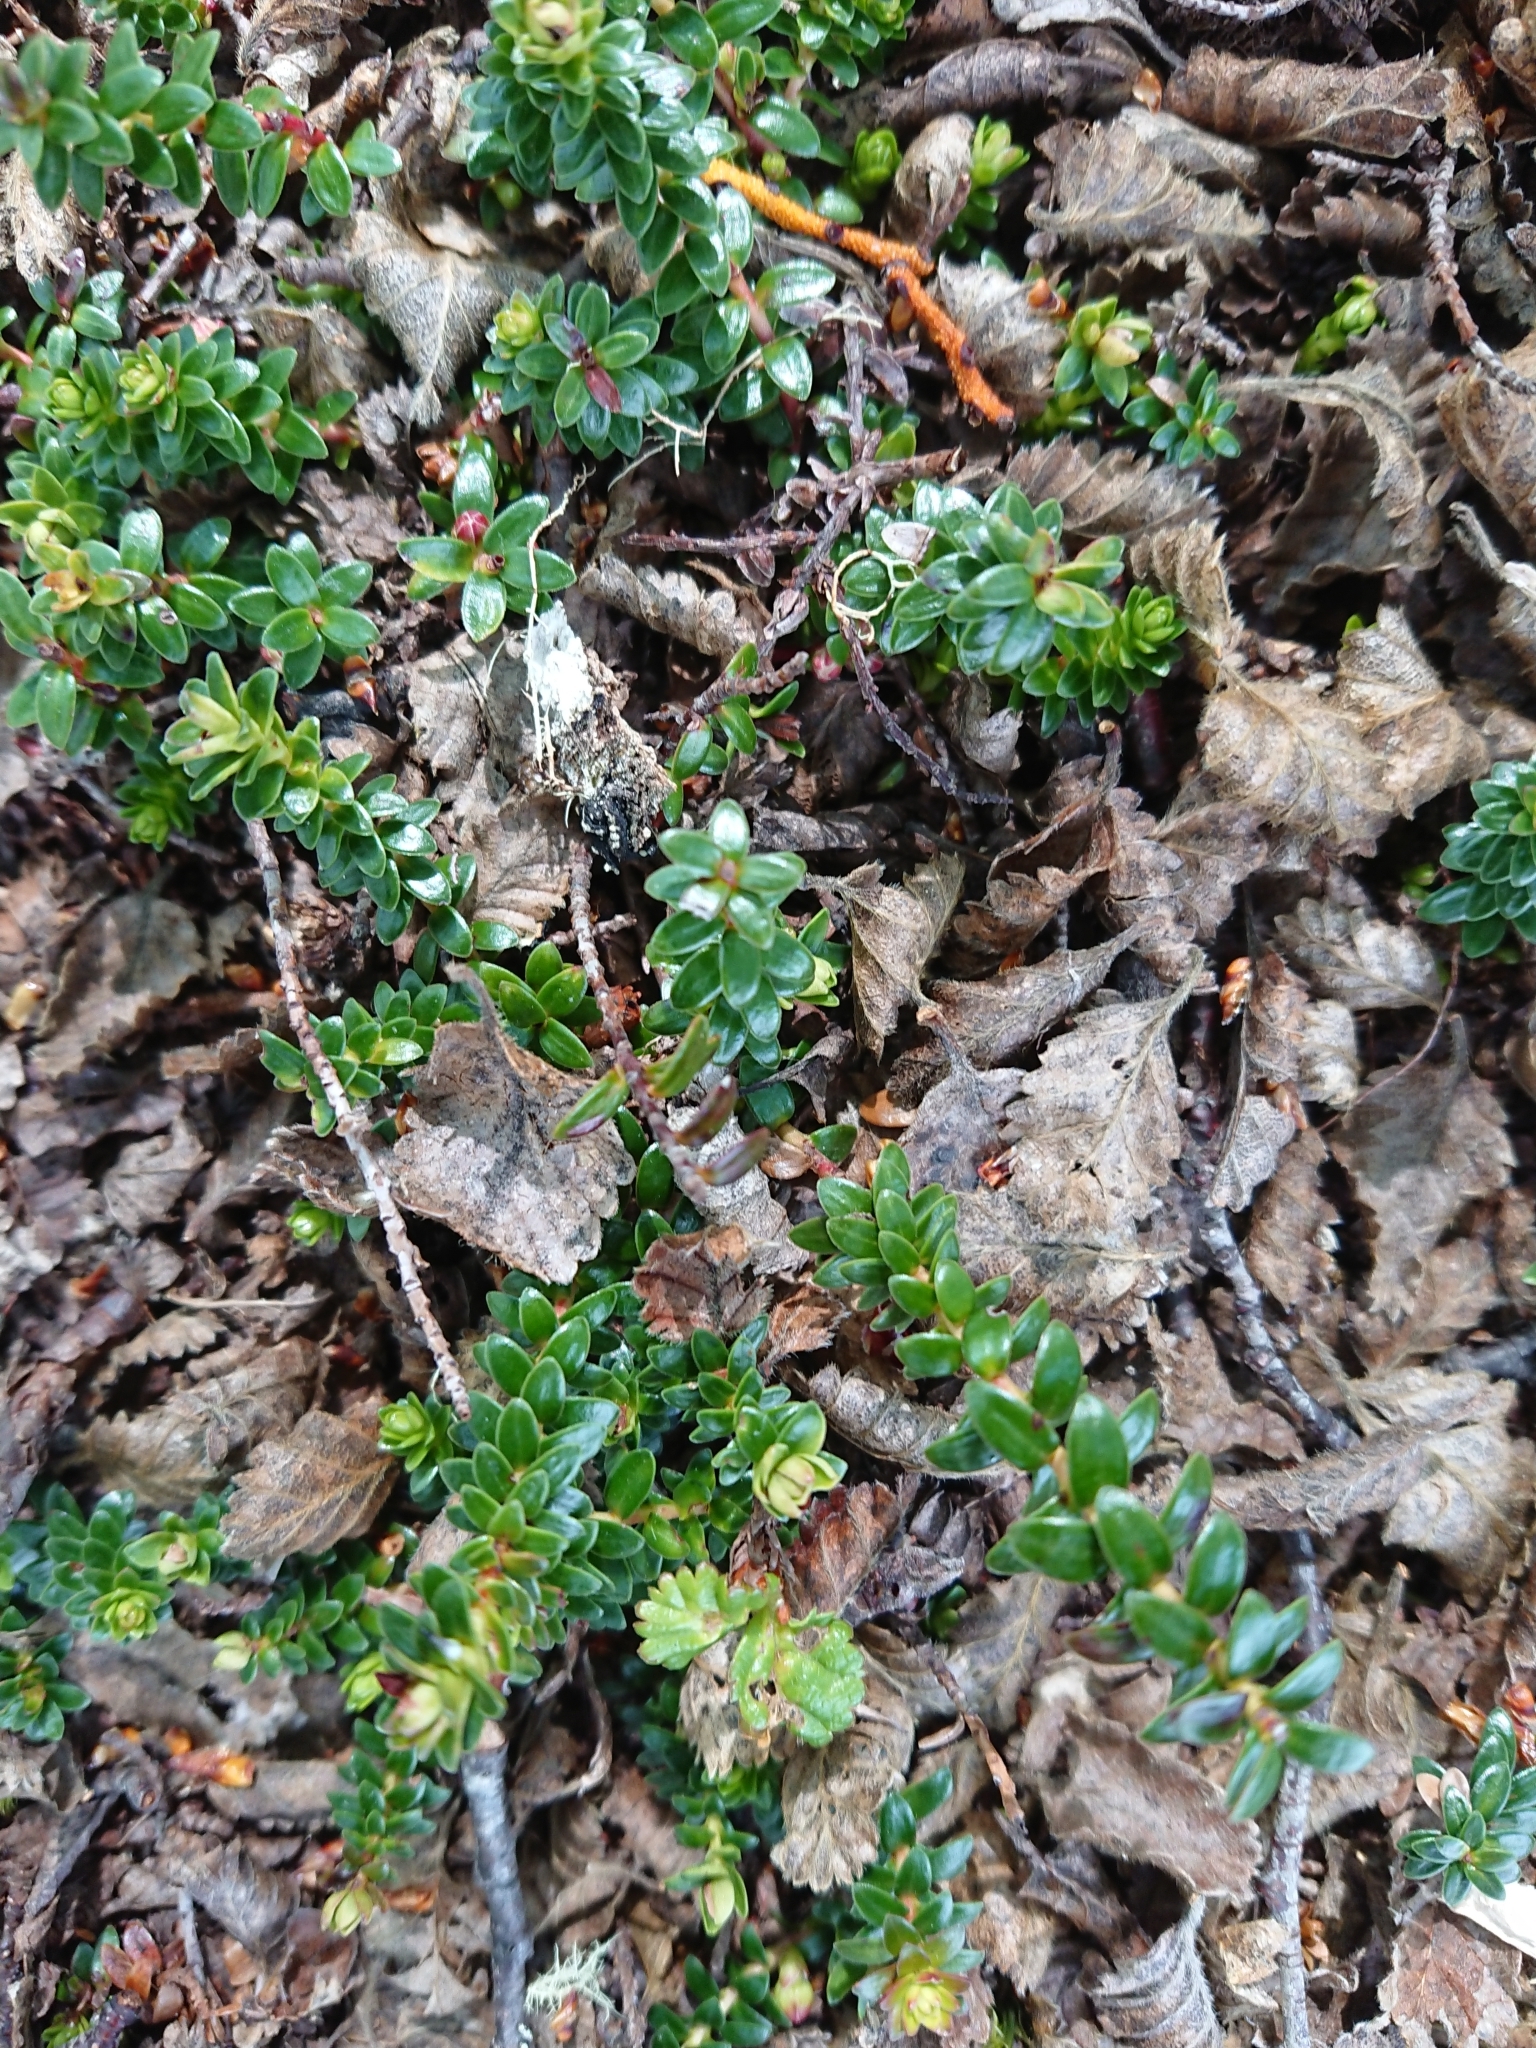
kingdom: Plantae
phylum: Tracheophyta
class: Magnoliopsida
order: Ericales
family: Ericaceae
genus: Gaultheria
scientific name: Gaultheria pumila
